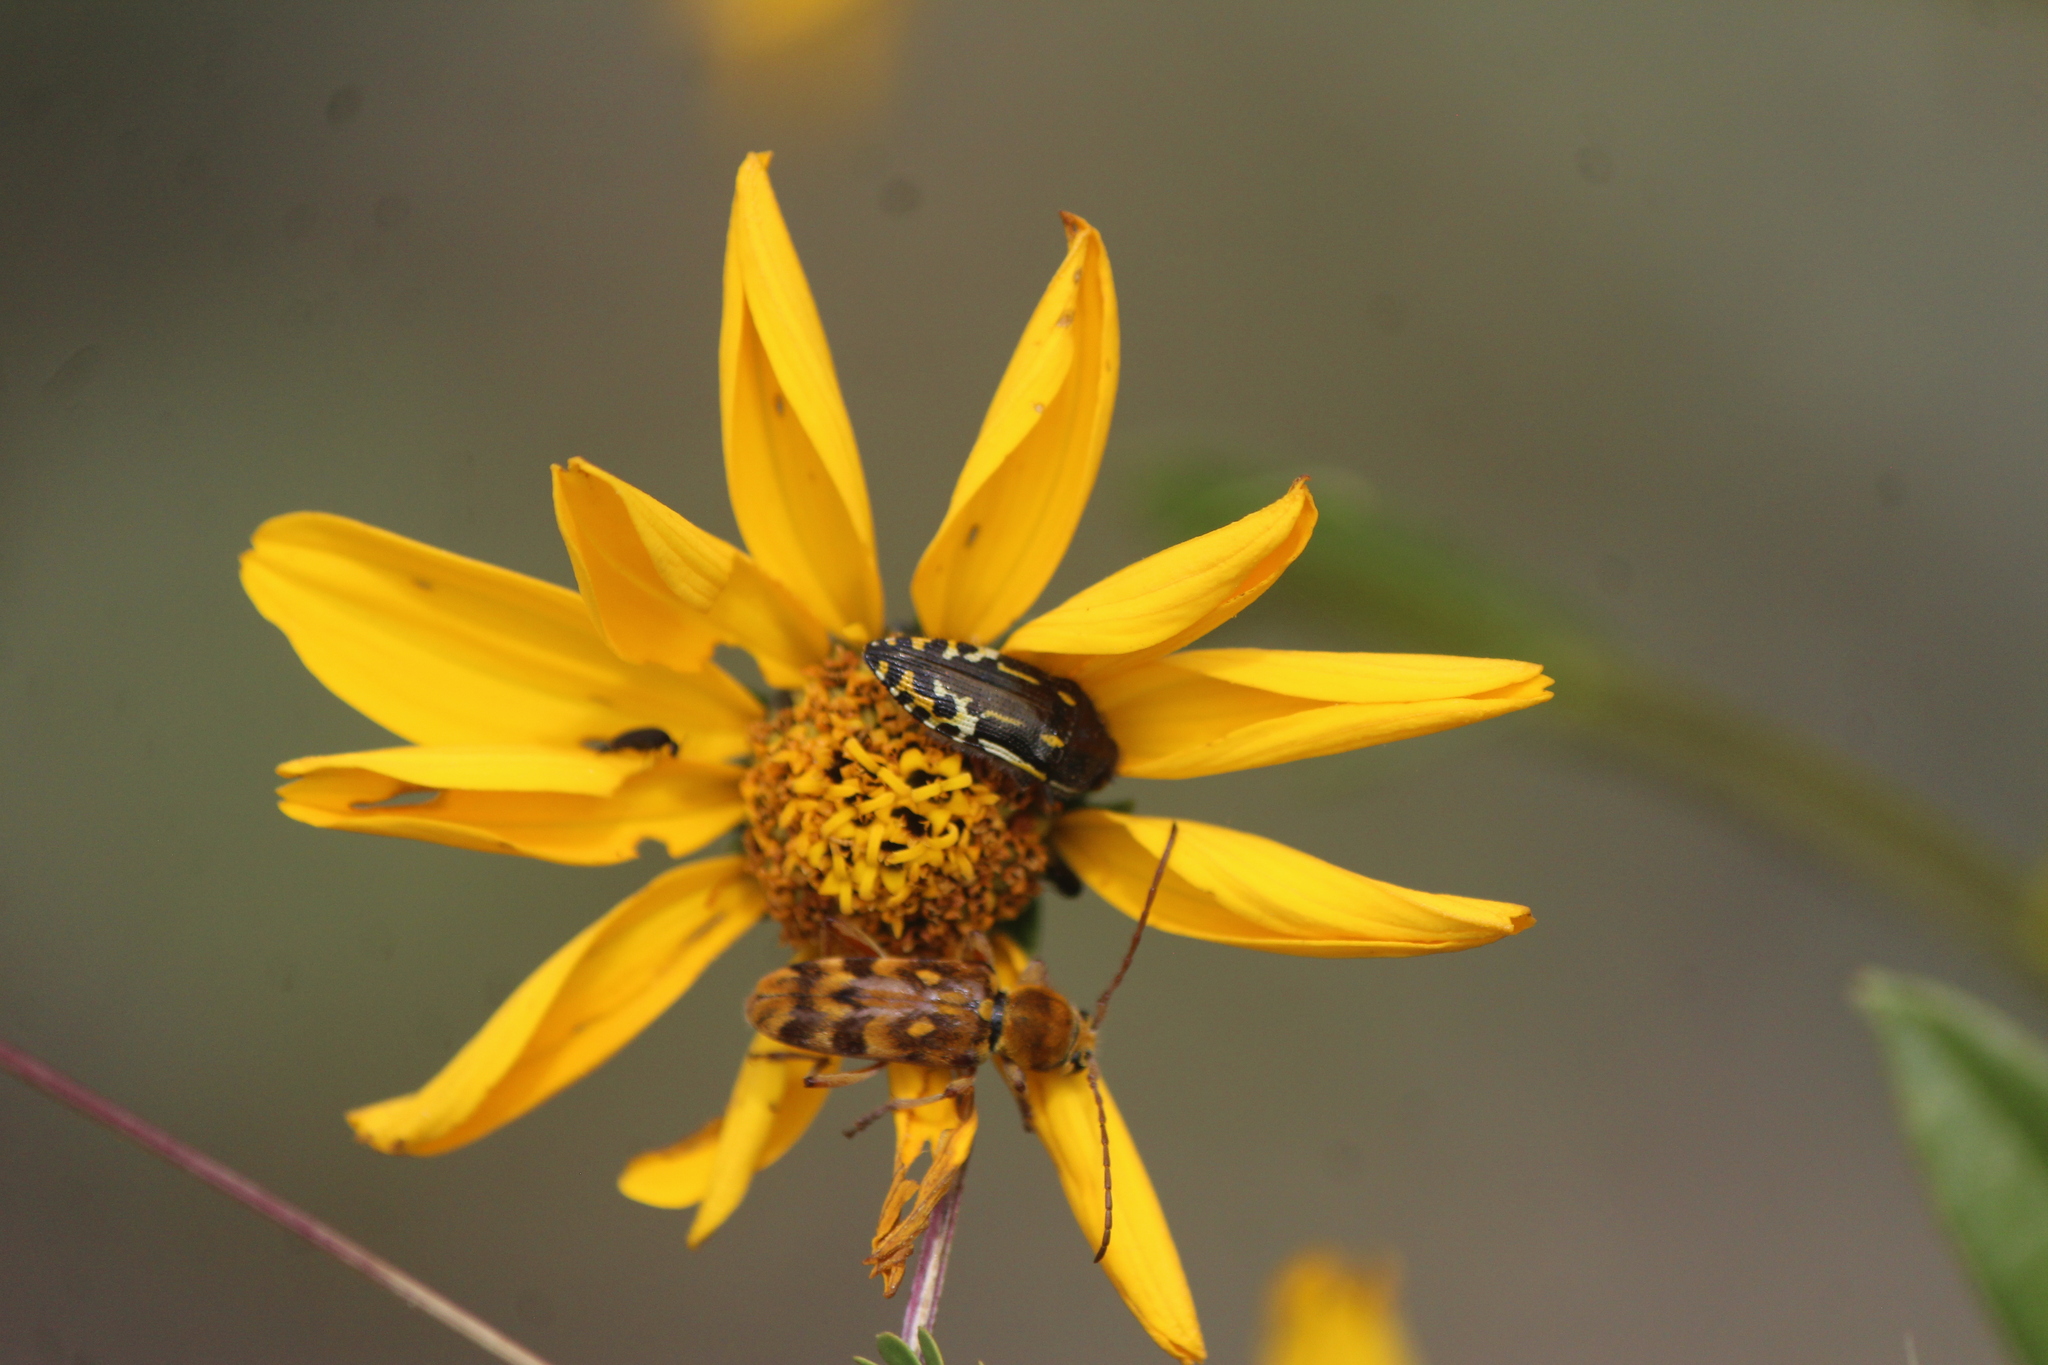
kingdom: Animalia
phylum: Arthropoda
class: Insecta
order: Coleoptera
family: Buprestidae
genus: Acmaeodera
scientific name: Acmaeodera scalaris
